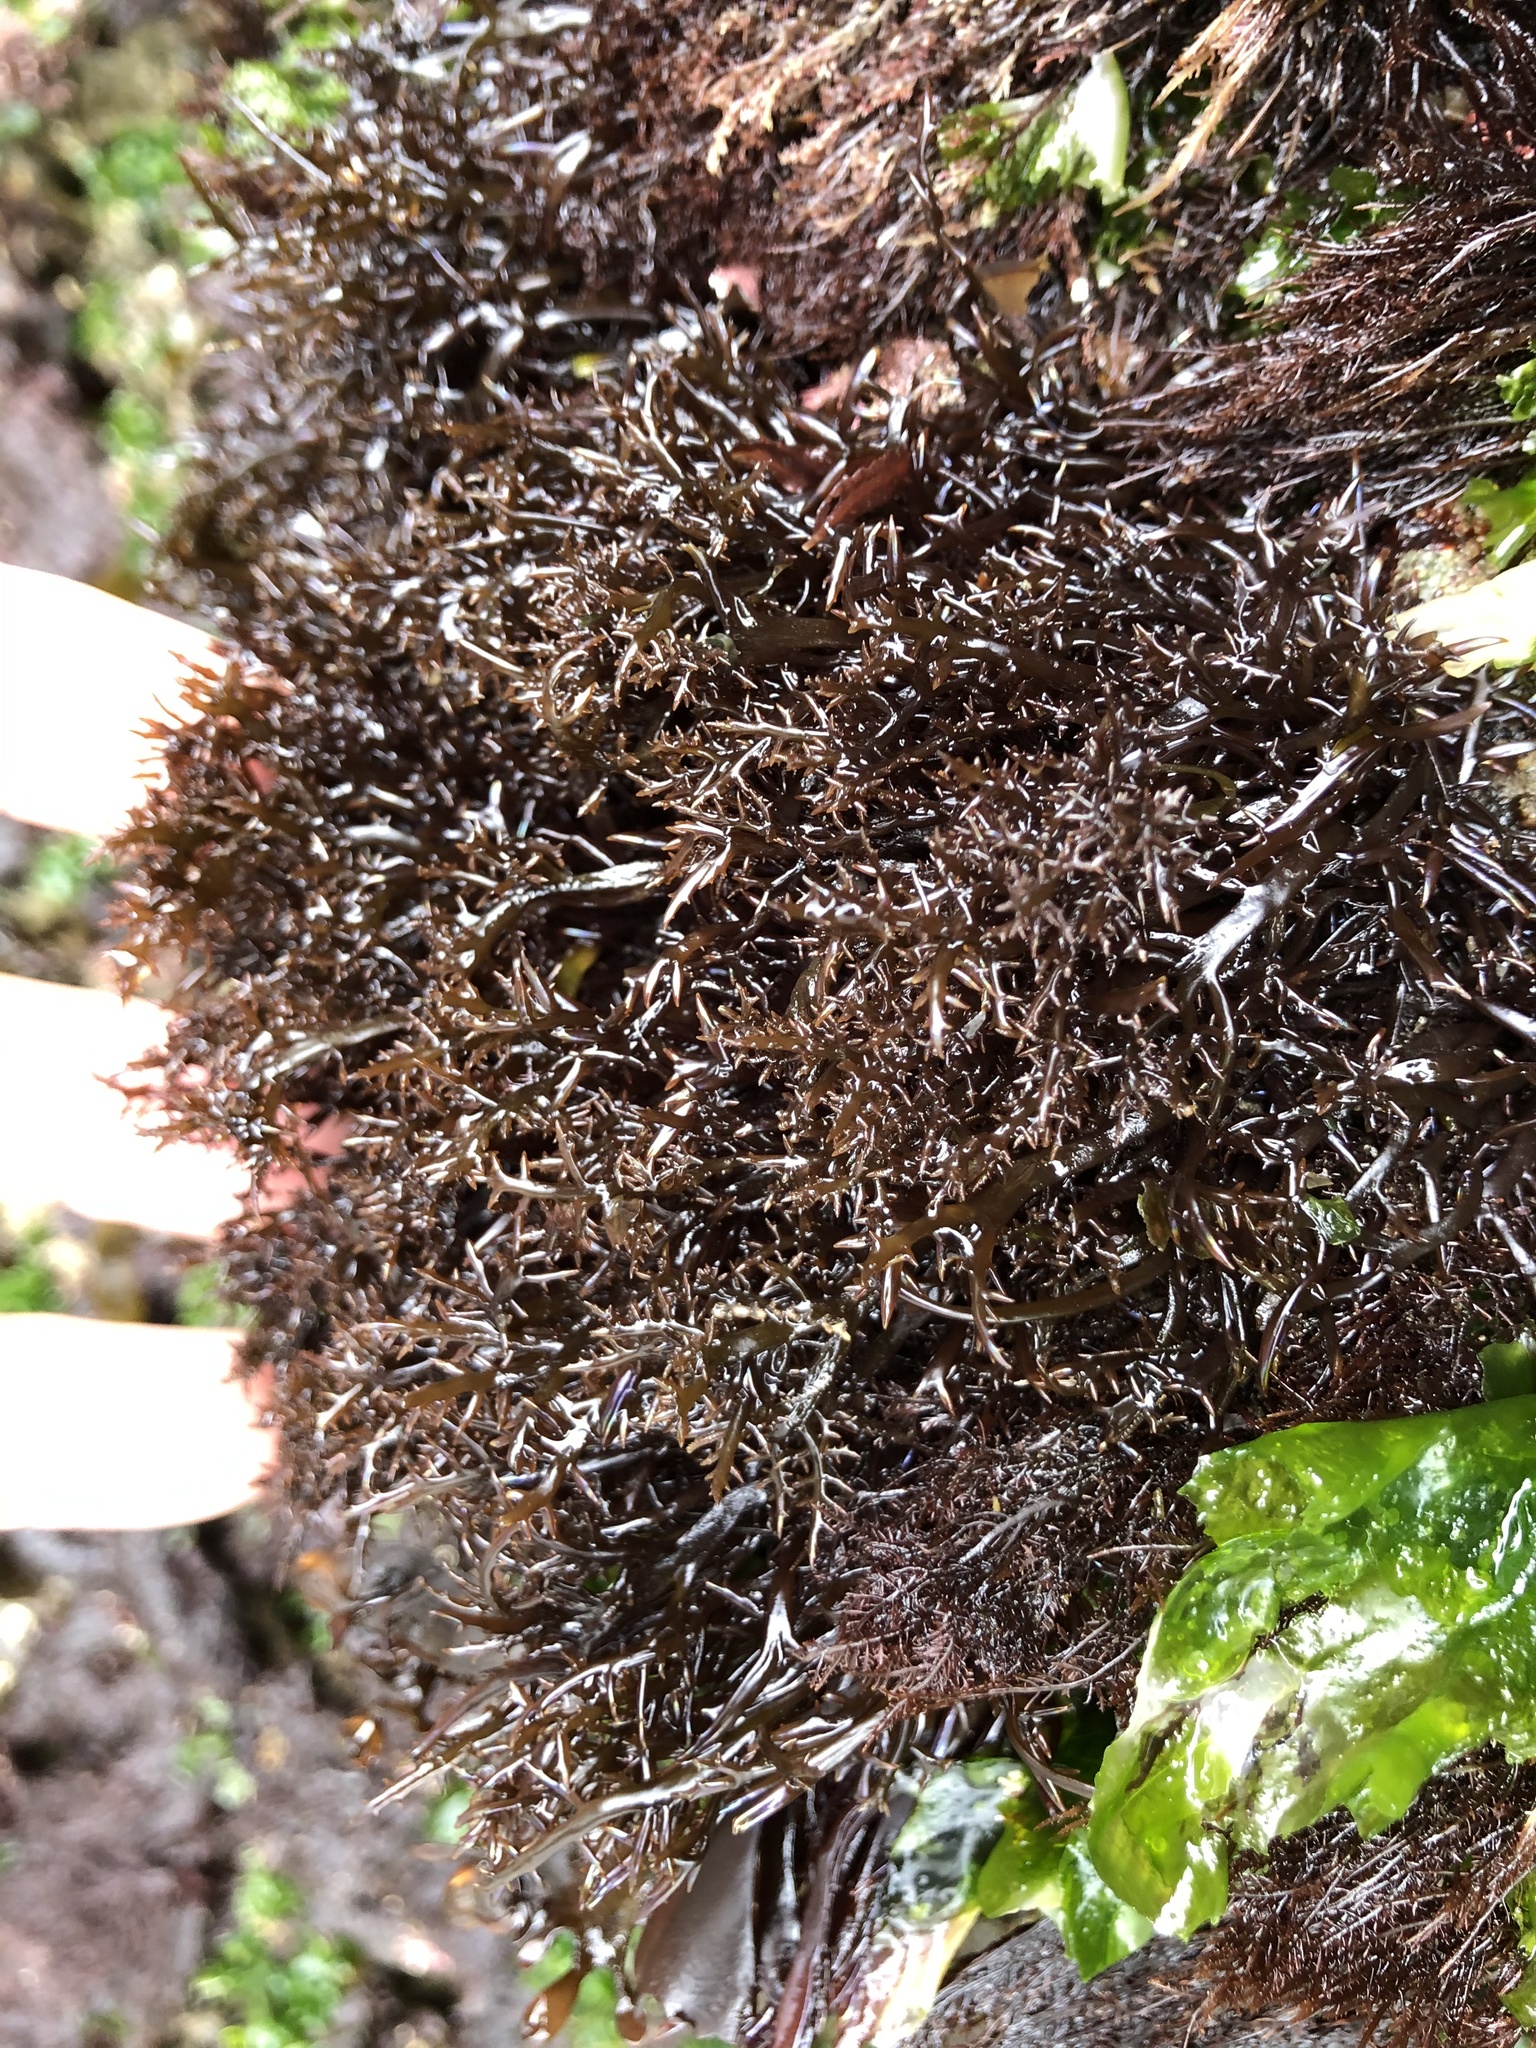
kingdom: Plantae
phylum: Rhodophyta
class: Florideophyceae
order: Gigartinales
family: Gigartinaceae
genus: Chondracanthus
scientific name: Chondracanthus canaliculatus
